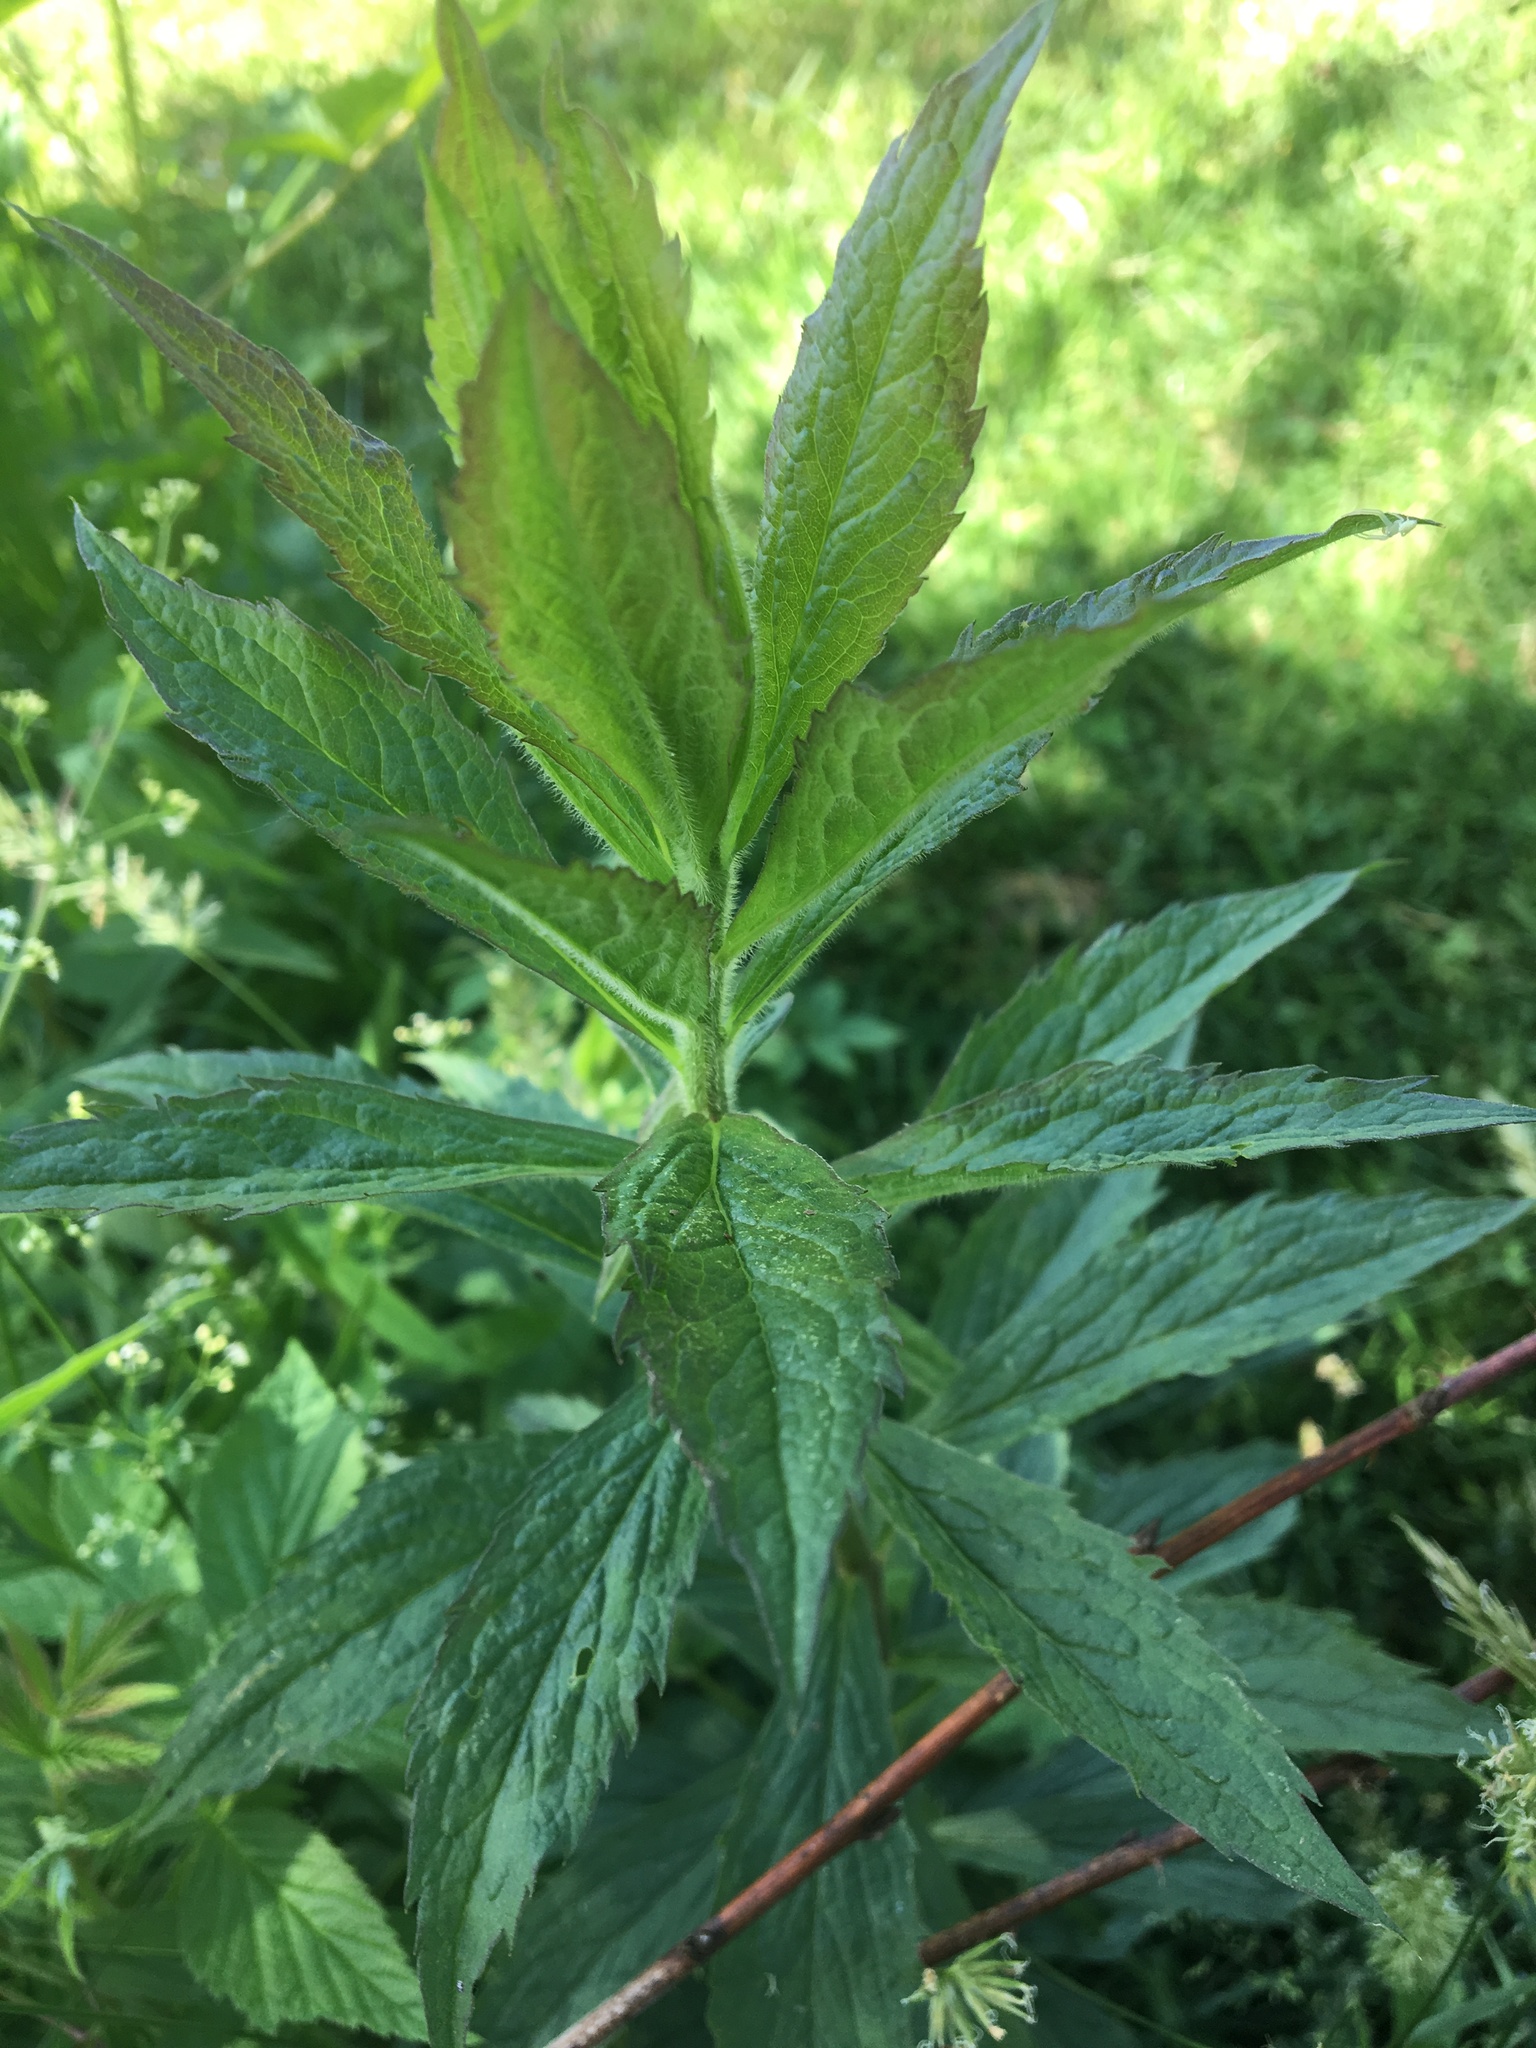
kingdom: Plantae
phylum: Tracheophyta
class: Magnoliopsida
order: Asterales
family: Asteraceae
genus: Solidago
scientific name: Solidago rugosa
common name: Rough-stemmed goldenrod
